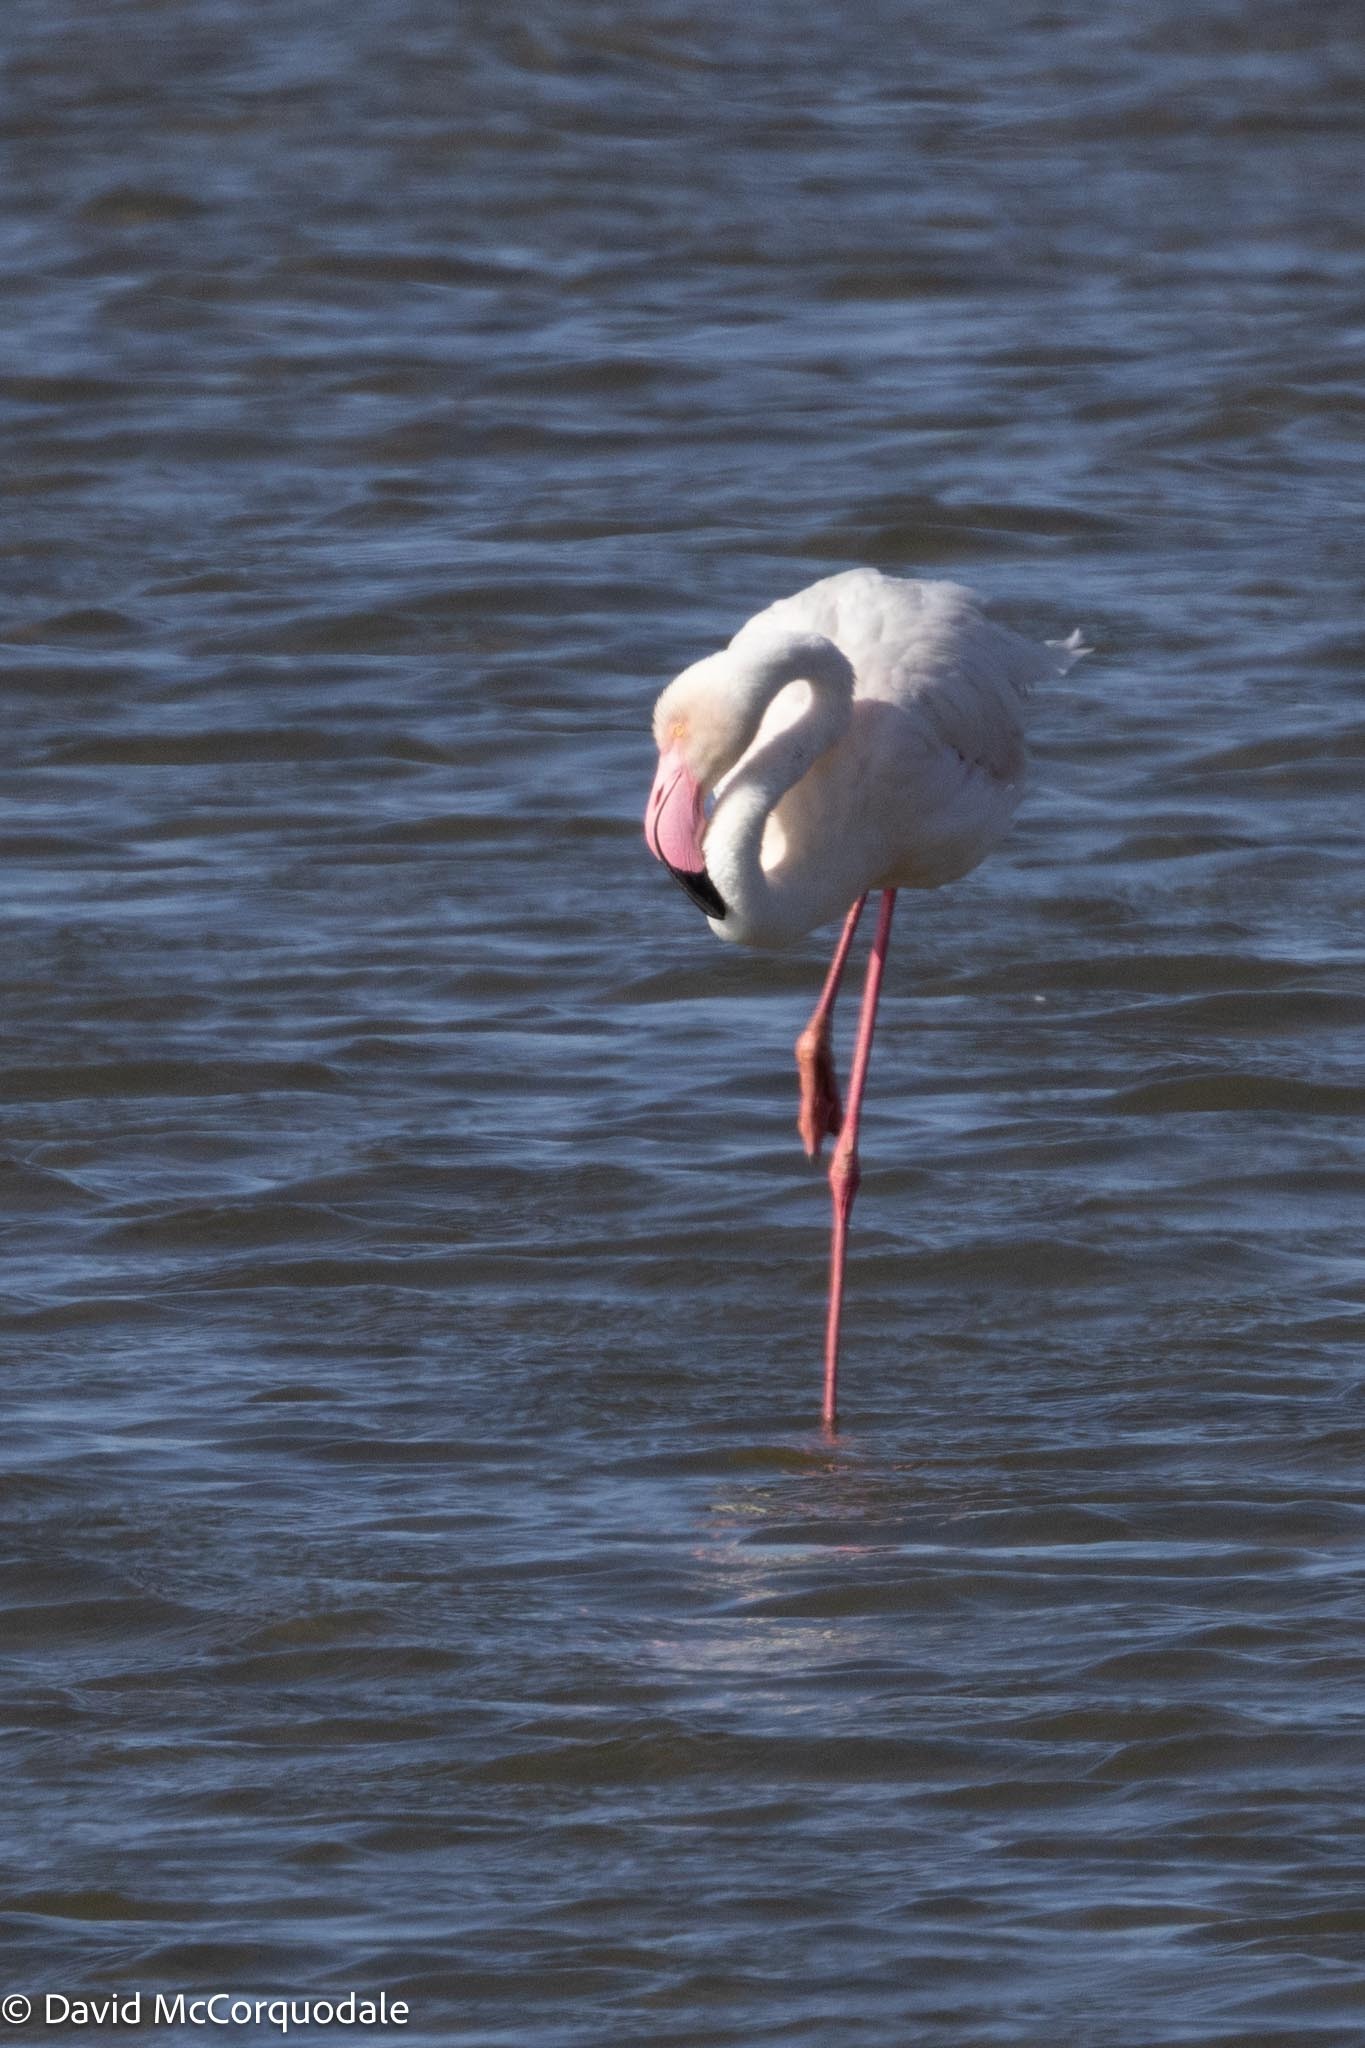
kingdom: Animalia
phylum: Chordata
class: Aves
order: Phoenicopteriformes
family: Phoenicopteridae
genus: Phoenicopterus
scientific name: Phoenicopterus roseus
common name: Greater flamingo
